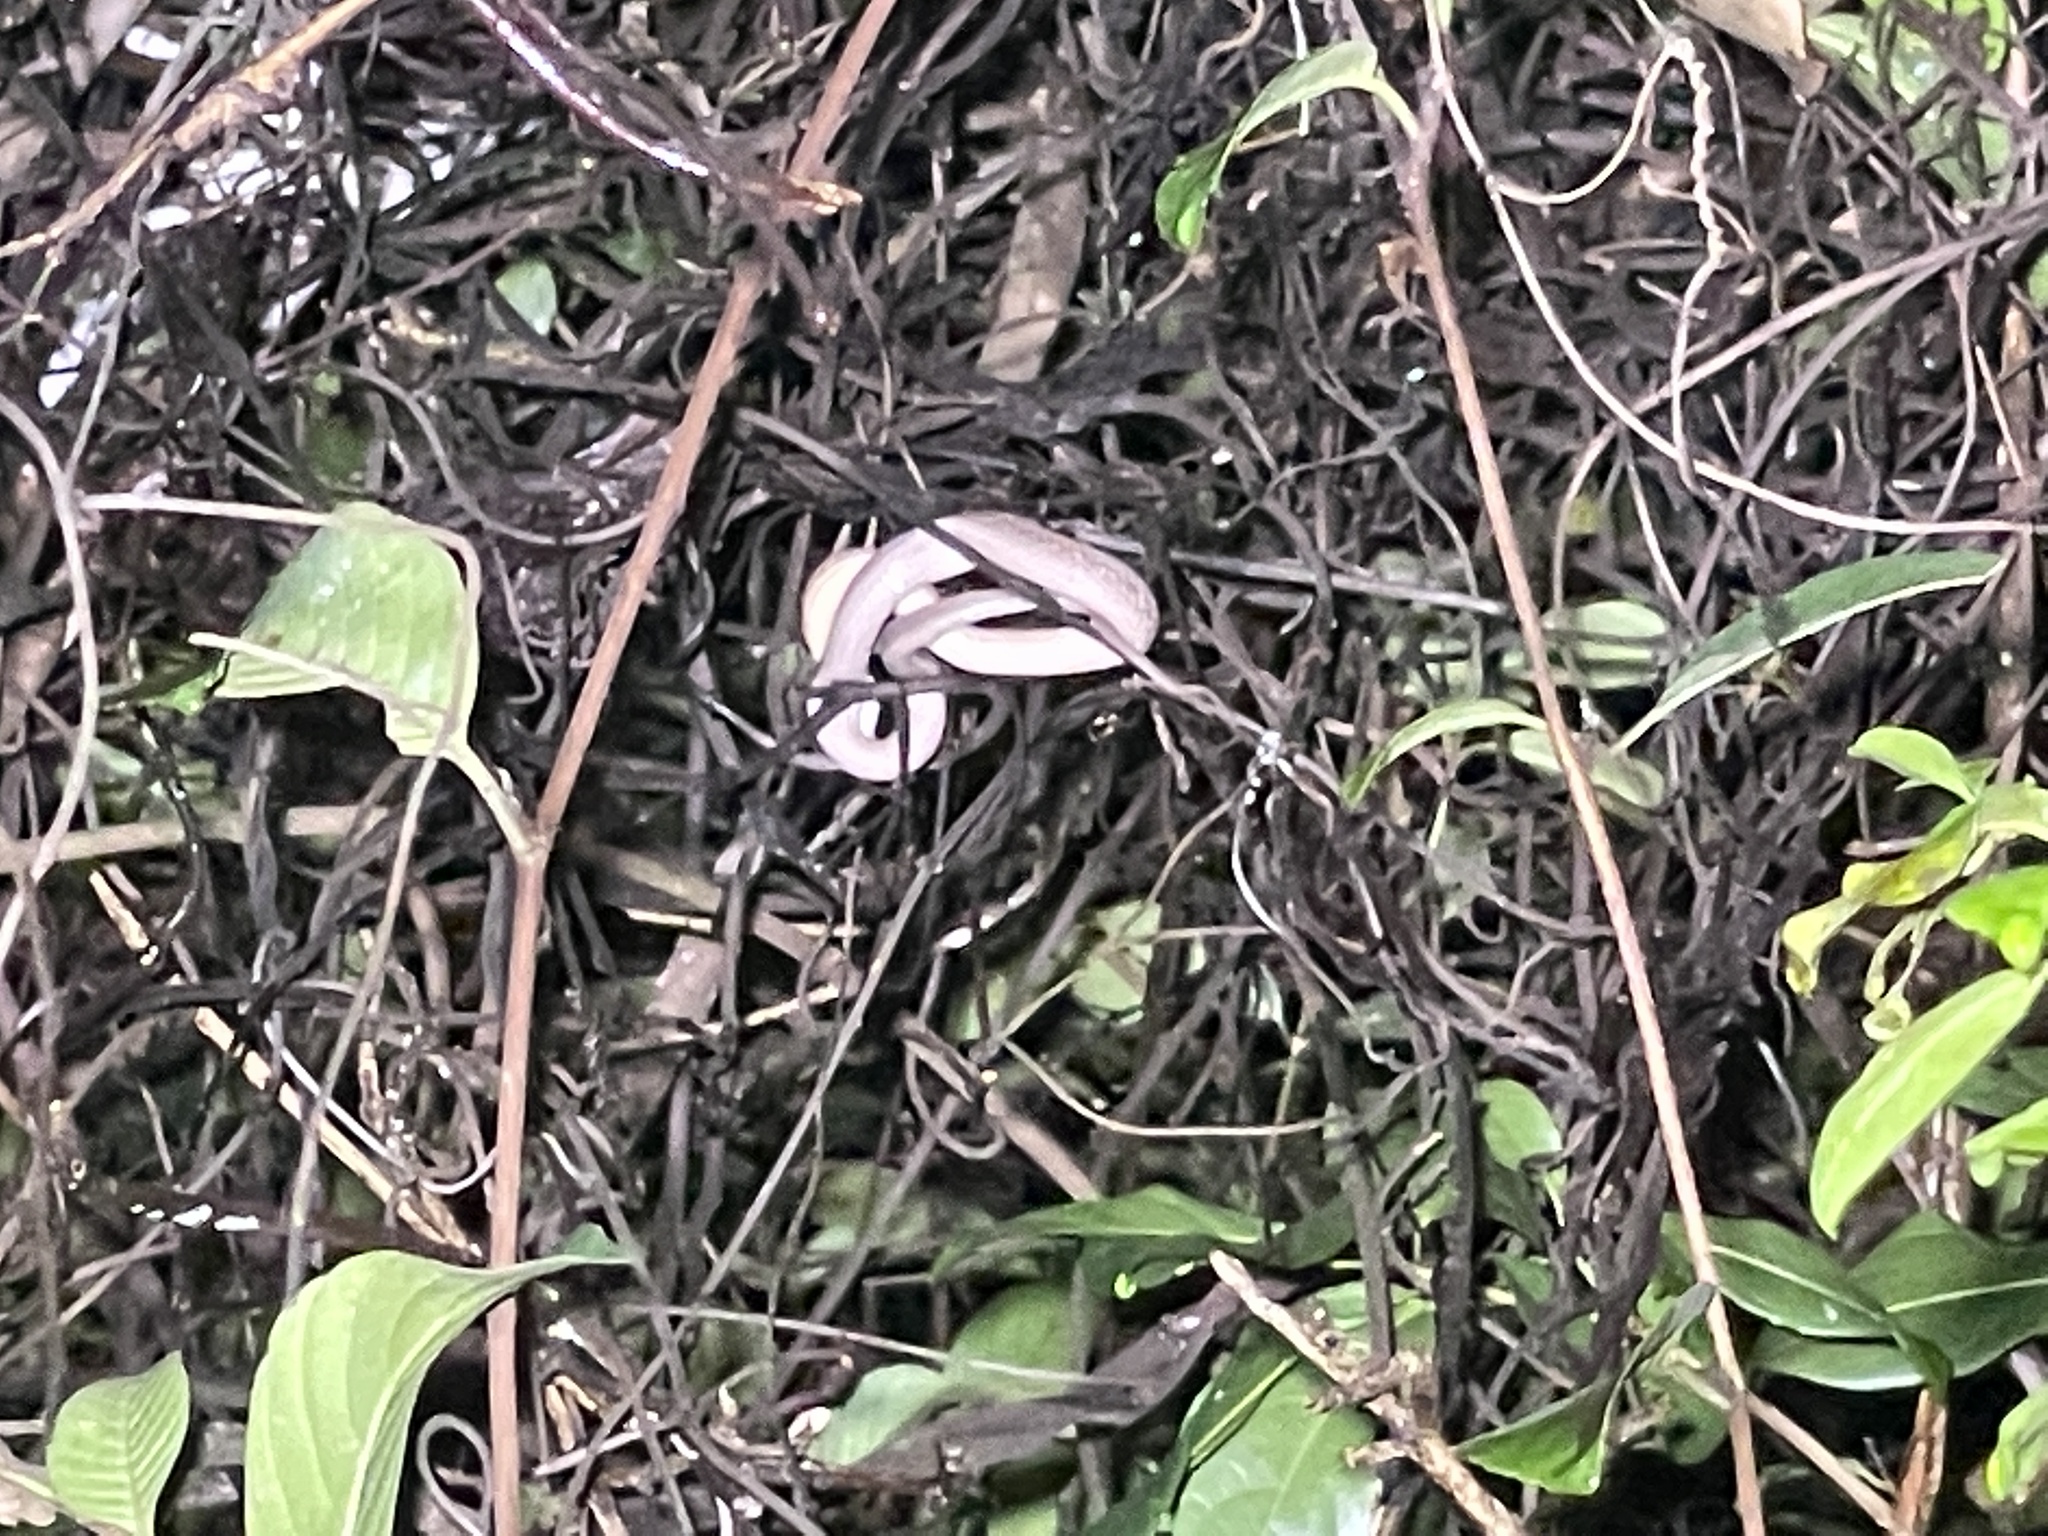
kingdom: Animalia
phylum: Chordata
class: Squamata
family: Pseudaspididae
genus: Psammodynastes
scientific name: Psammodynastes pulverulentus
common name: Common mock viper
